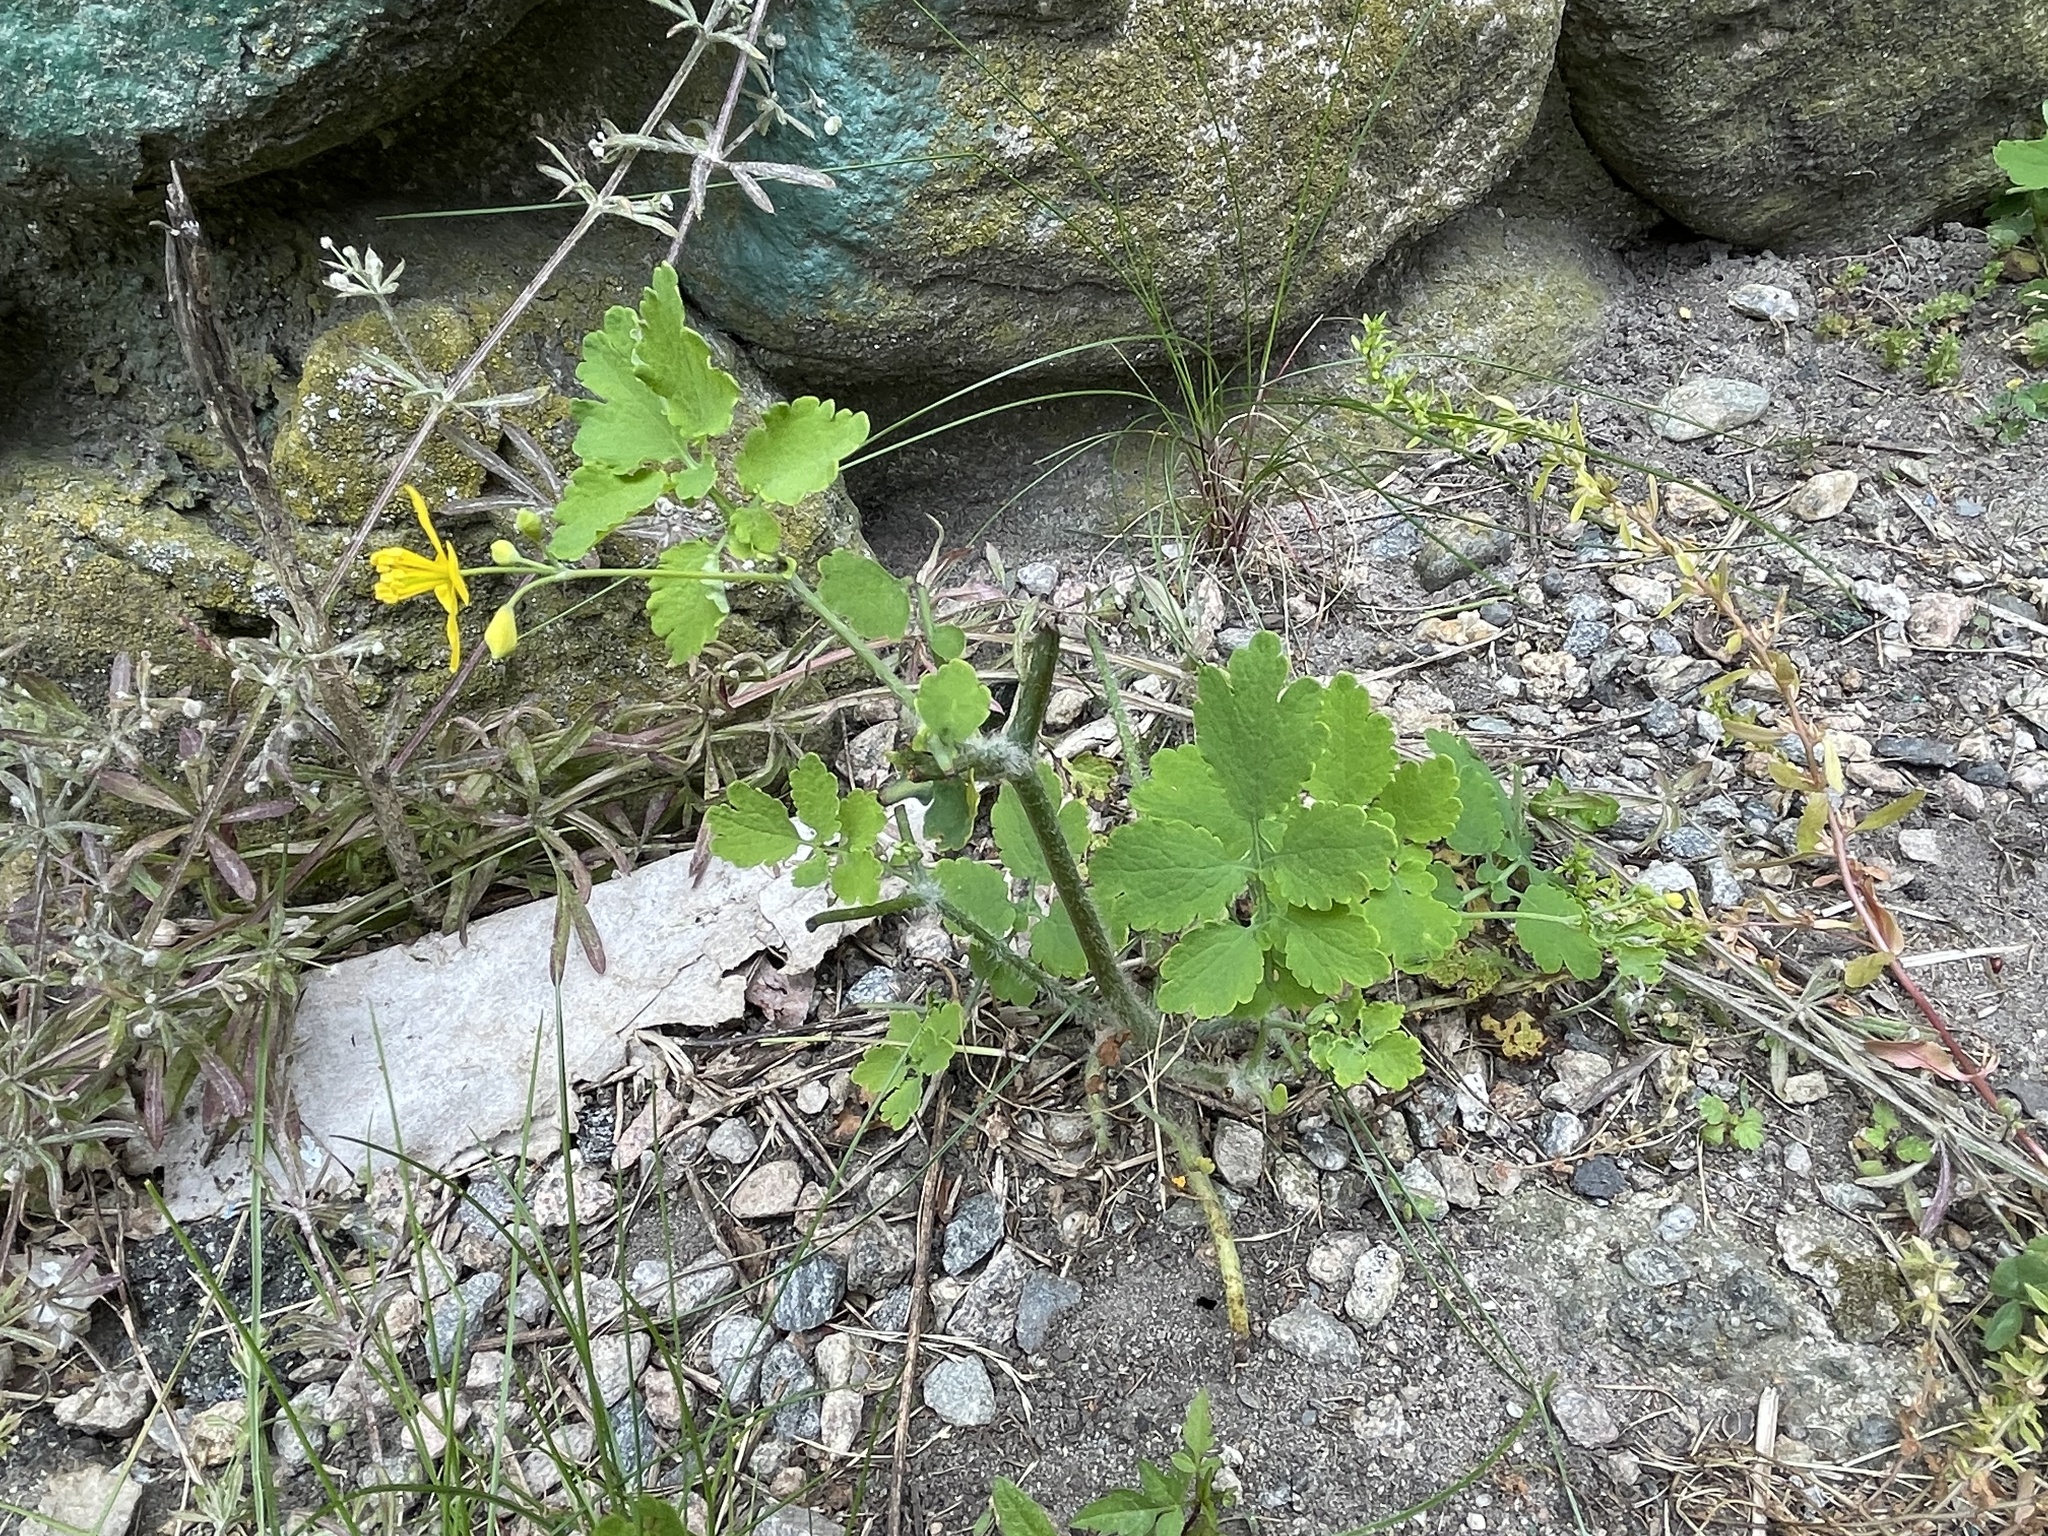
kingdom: Plantae
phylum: Tracheophyta
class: Magnoliopsida
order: Ranunculales
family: Papaveraceae
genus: Chelidonium
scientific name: Chelidonium majus
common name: Greater celandine
